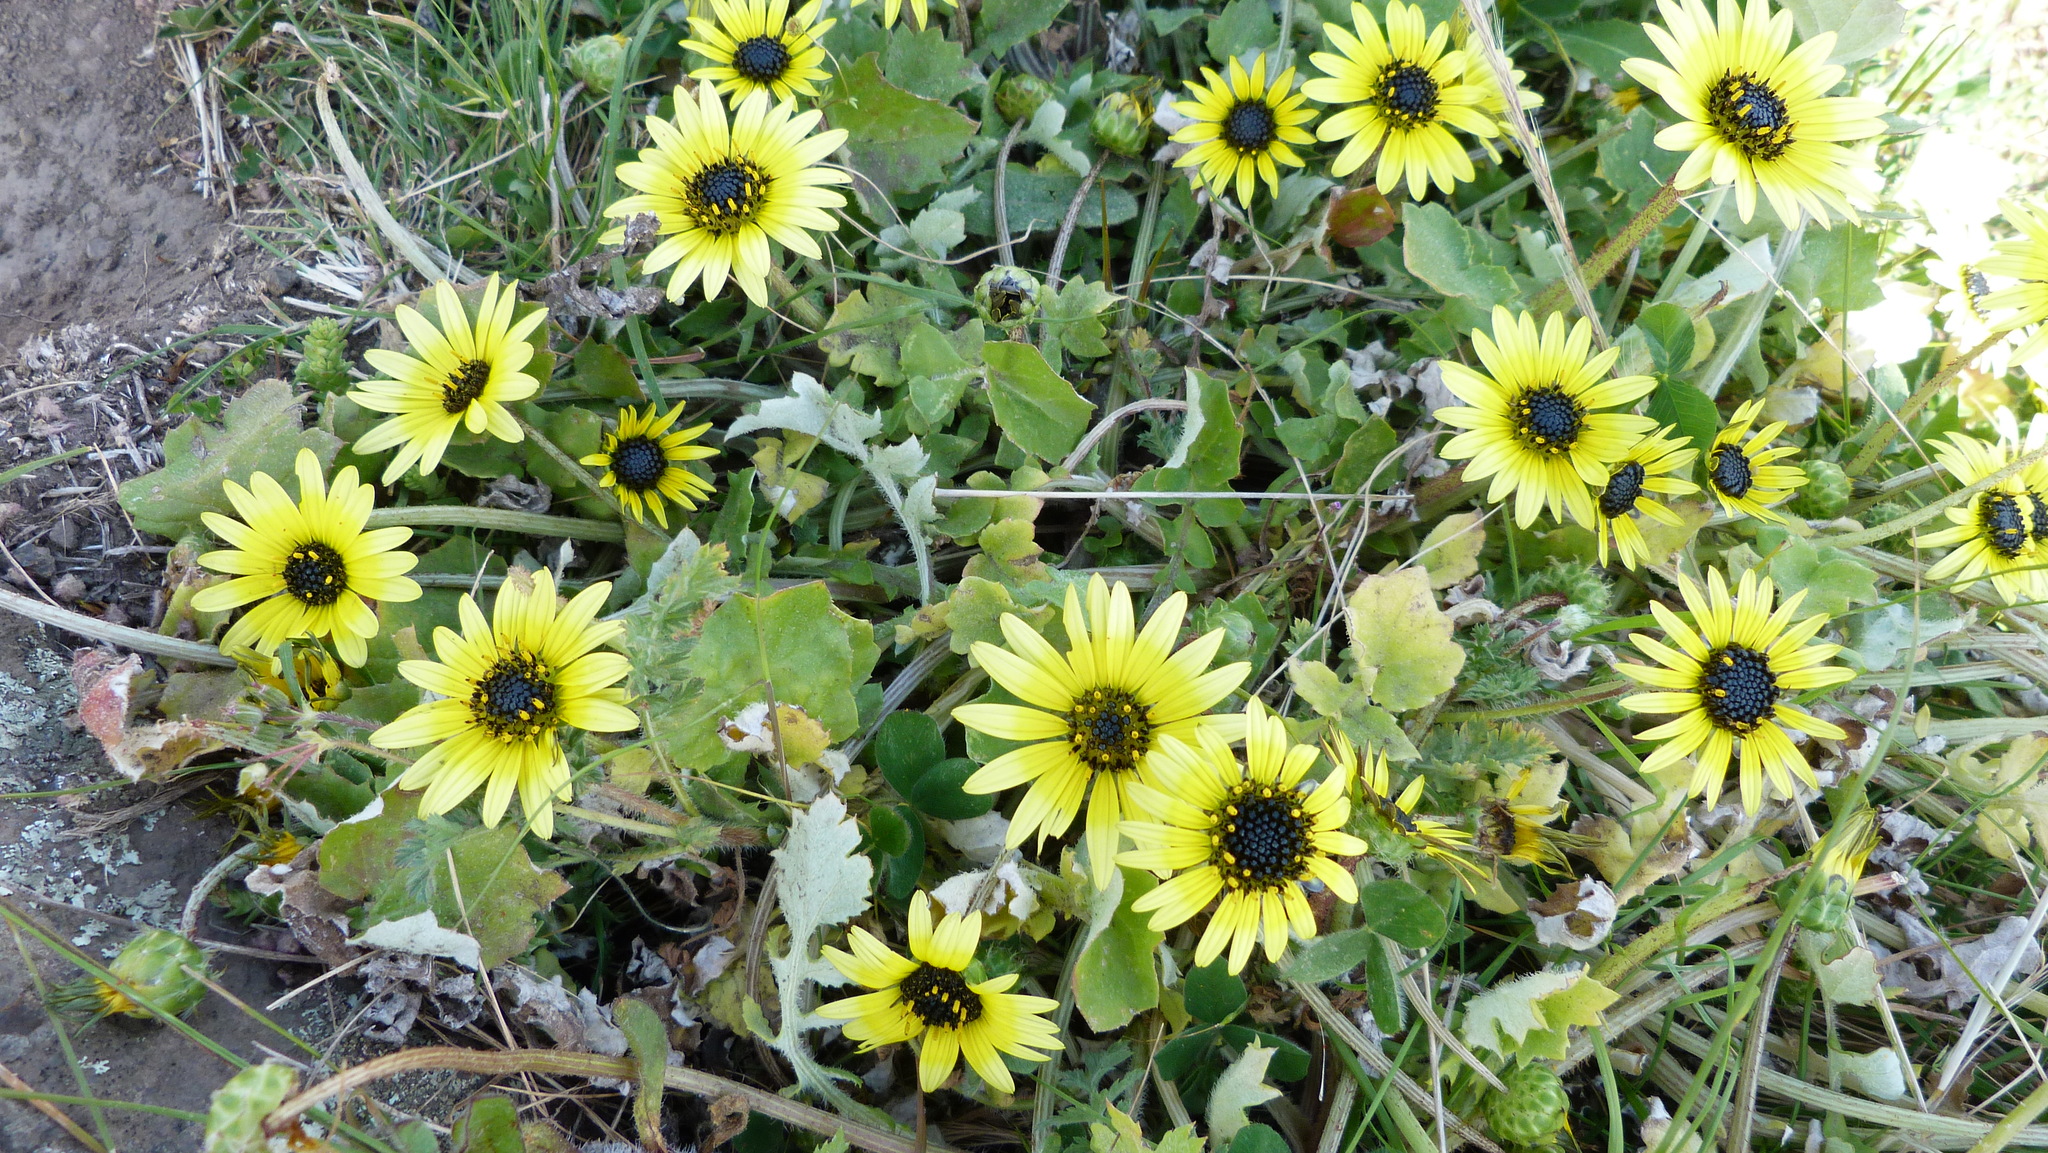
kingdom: Plantae
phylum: Tracheophyta
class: Magnoliopsida
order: Asterales
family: Asteraceae
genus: Arctotheca
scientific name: Arctotheca calendula
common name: Capeweed
